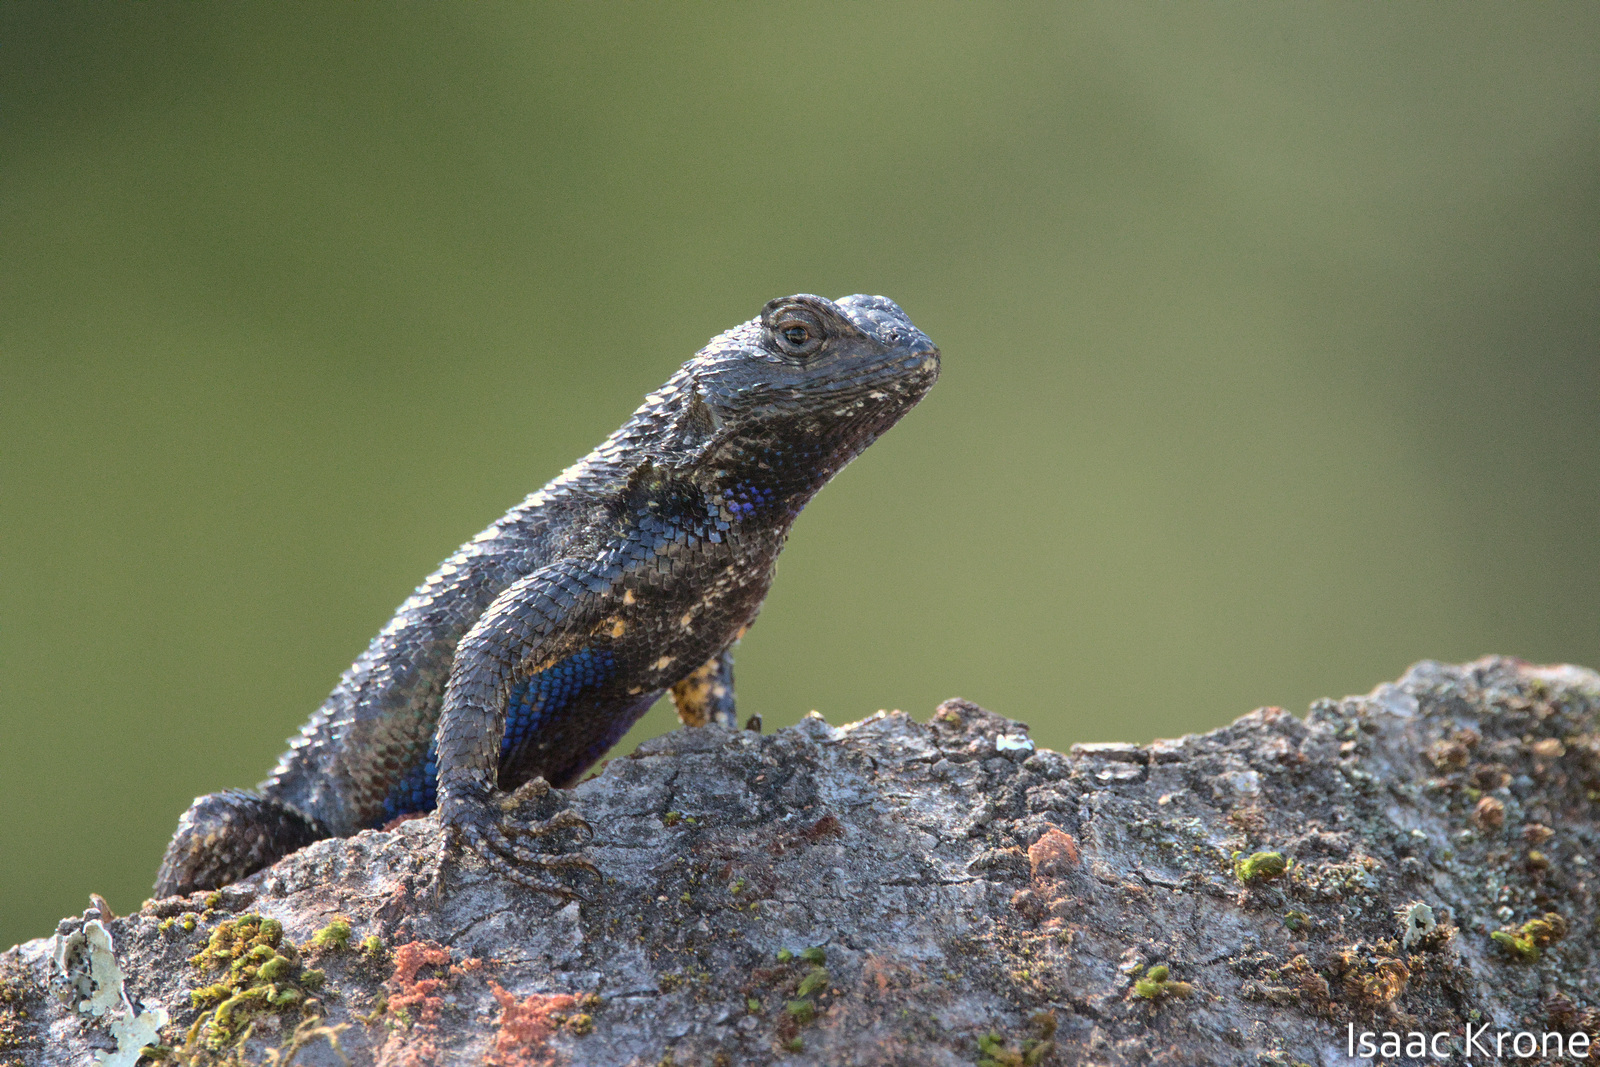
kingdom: Animalia
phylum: Chordata
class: Squamata
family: Phrynosomatidae
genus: Sceloporus
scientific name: Sceloporus occidentalis
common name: Western fence lizard
